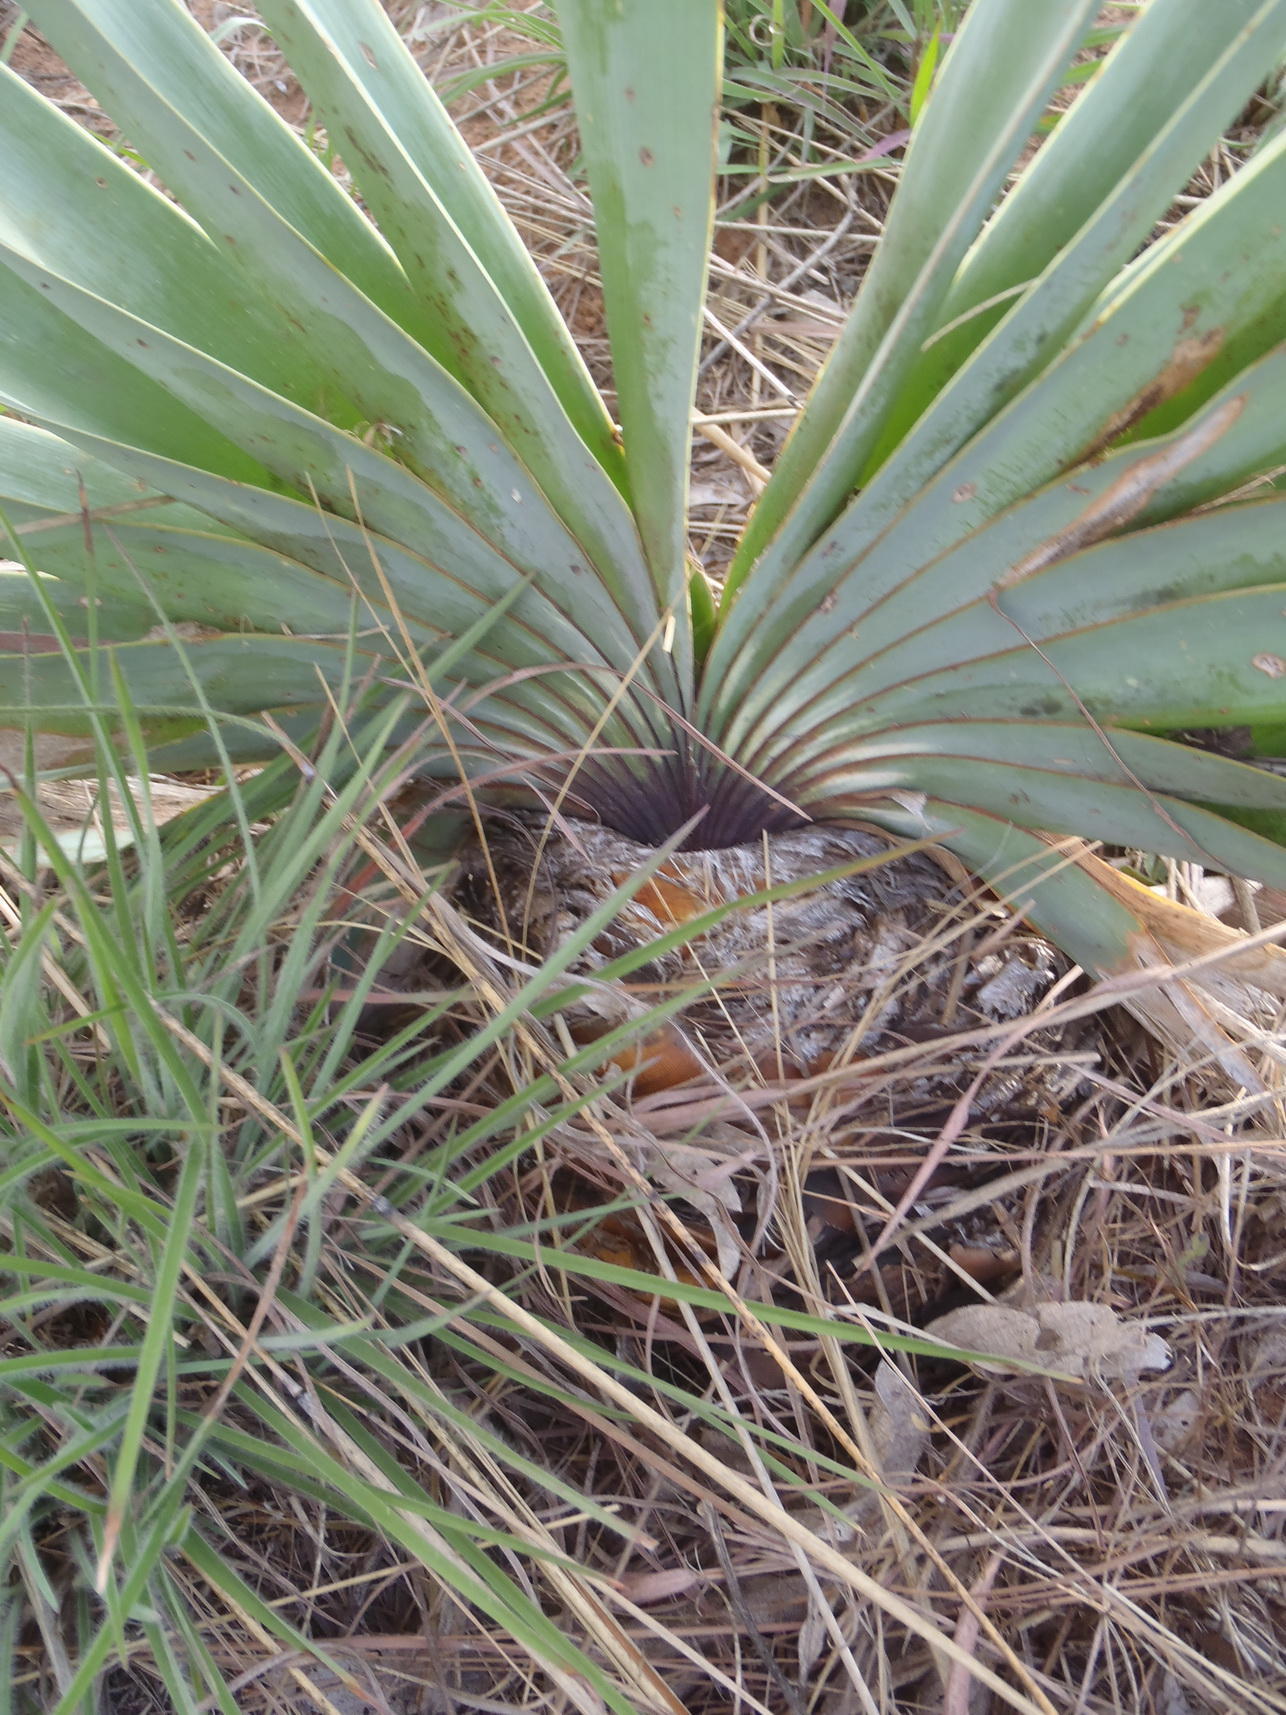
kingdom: Plantae
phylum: Tracheophyta
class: Liliopsida
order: Asparagales
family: Amaryllidaceae
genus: Boophone
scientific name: Boophone disticha
